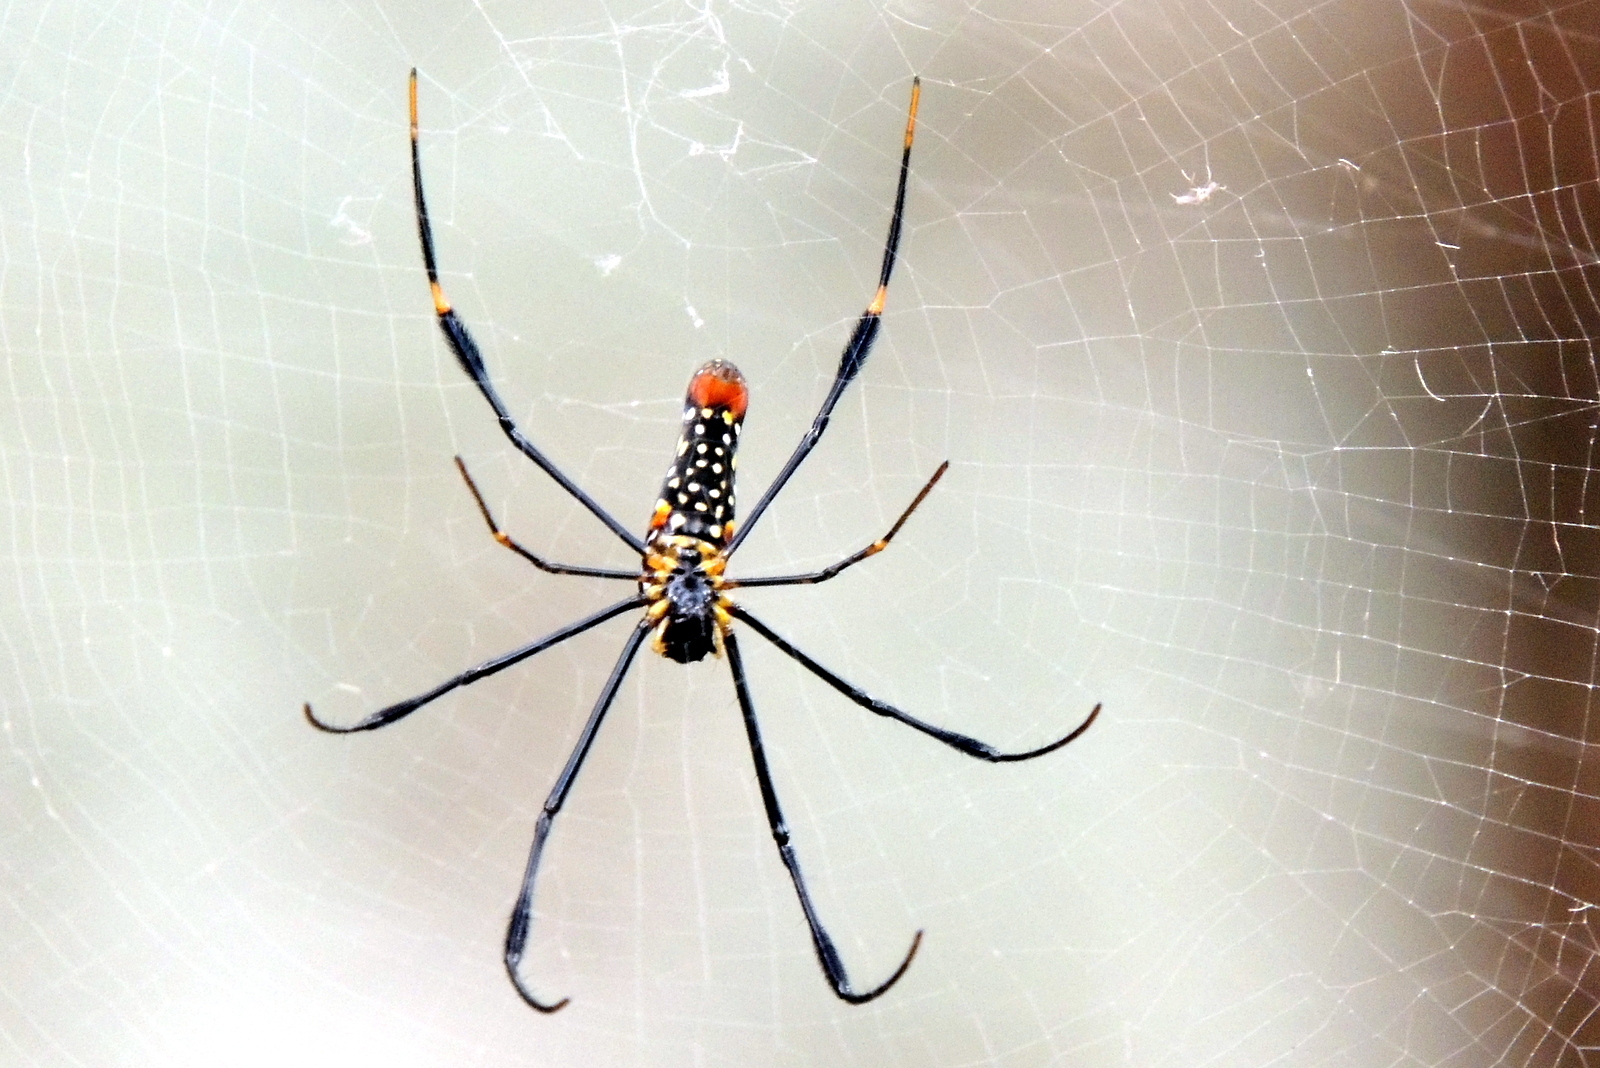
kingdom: Animalia
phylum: Arthropoda
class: Arachnida
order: Araneae
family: Araneidae
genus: Nephila
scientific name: Nephila pilipes
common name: Giant golden orb weaver
